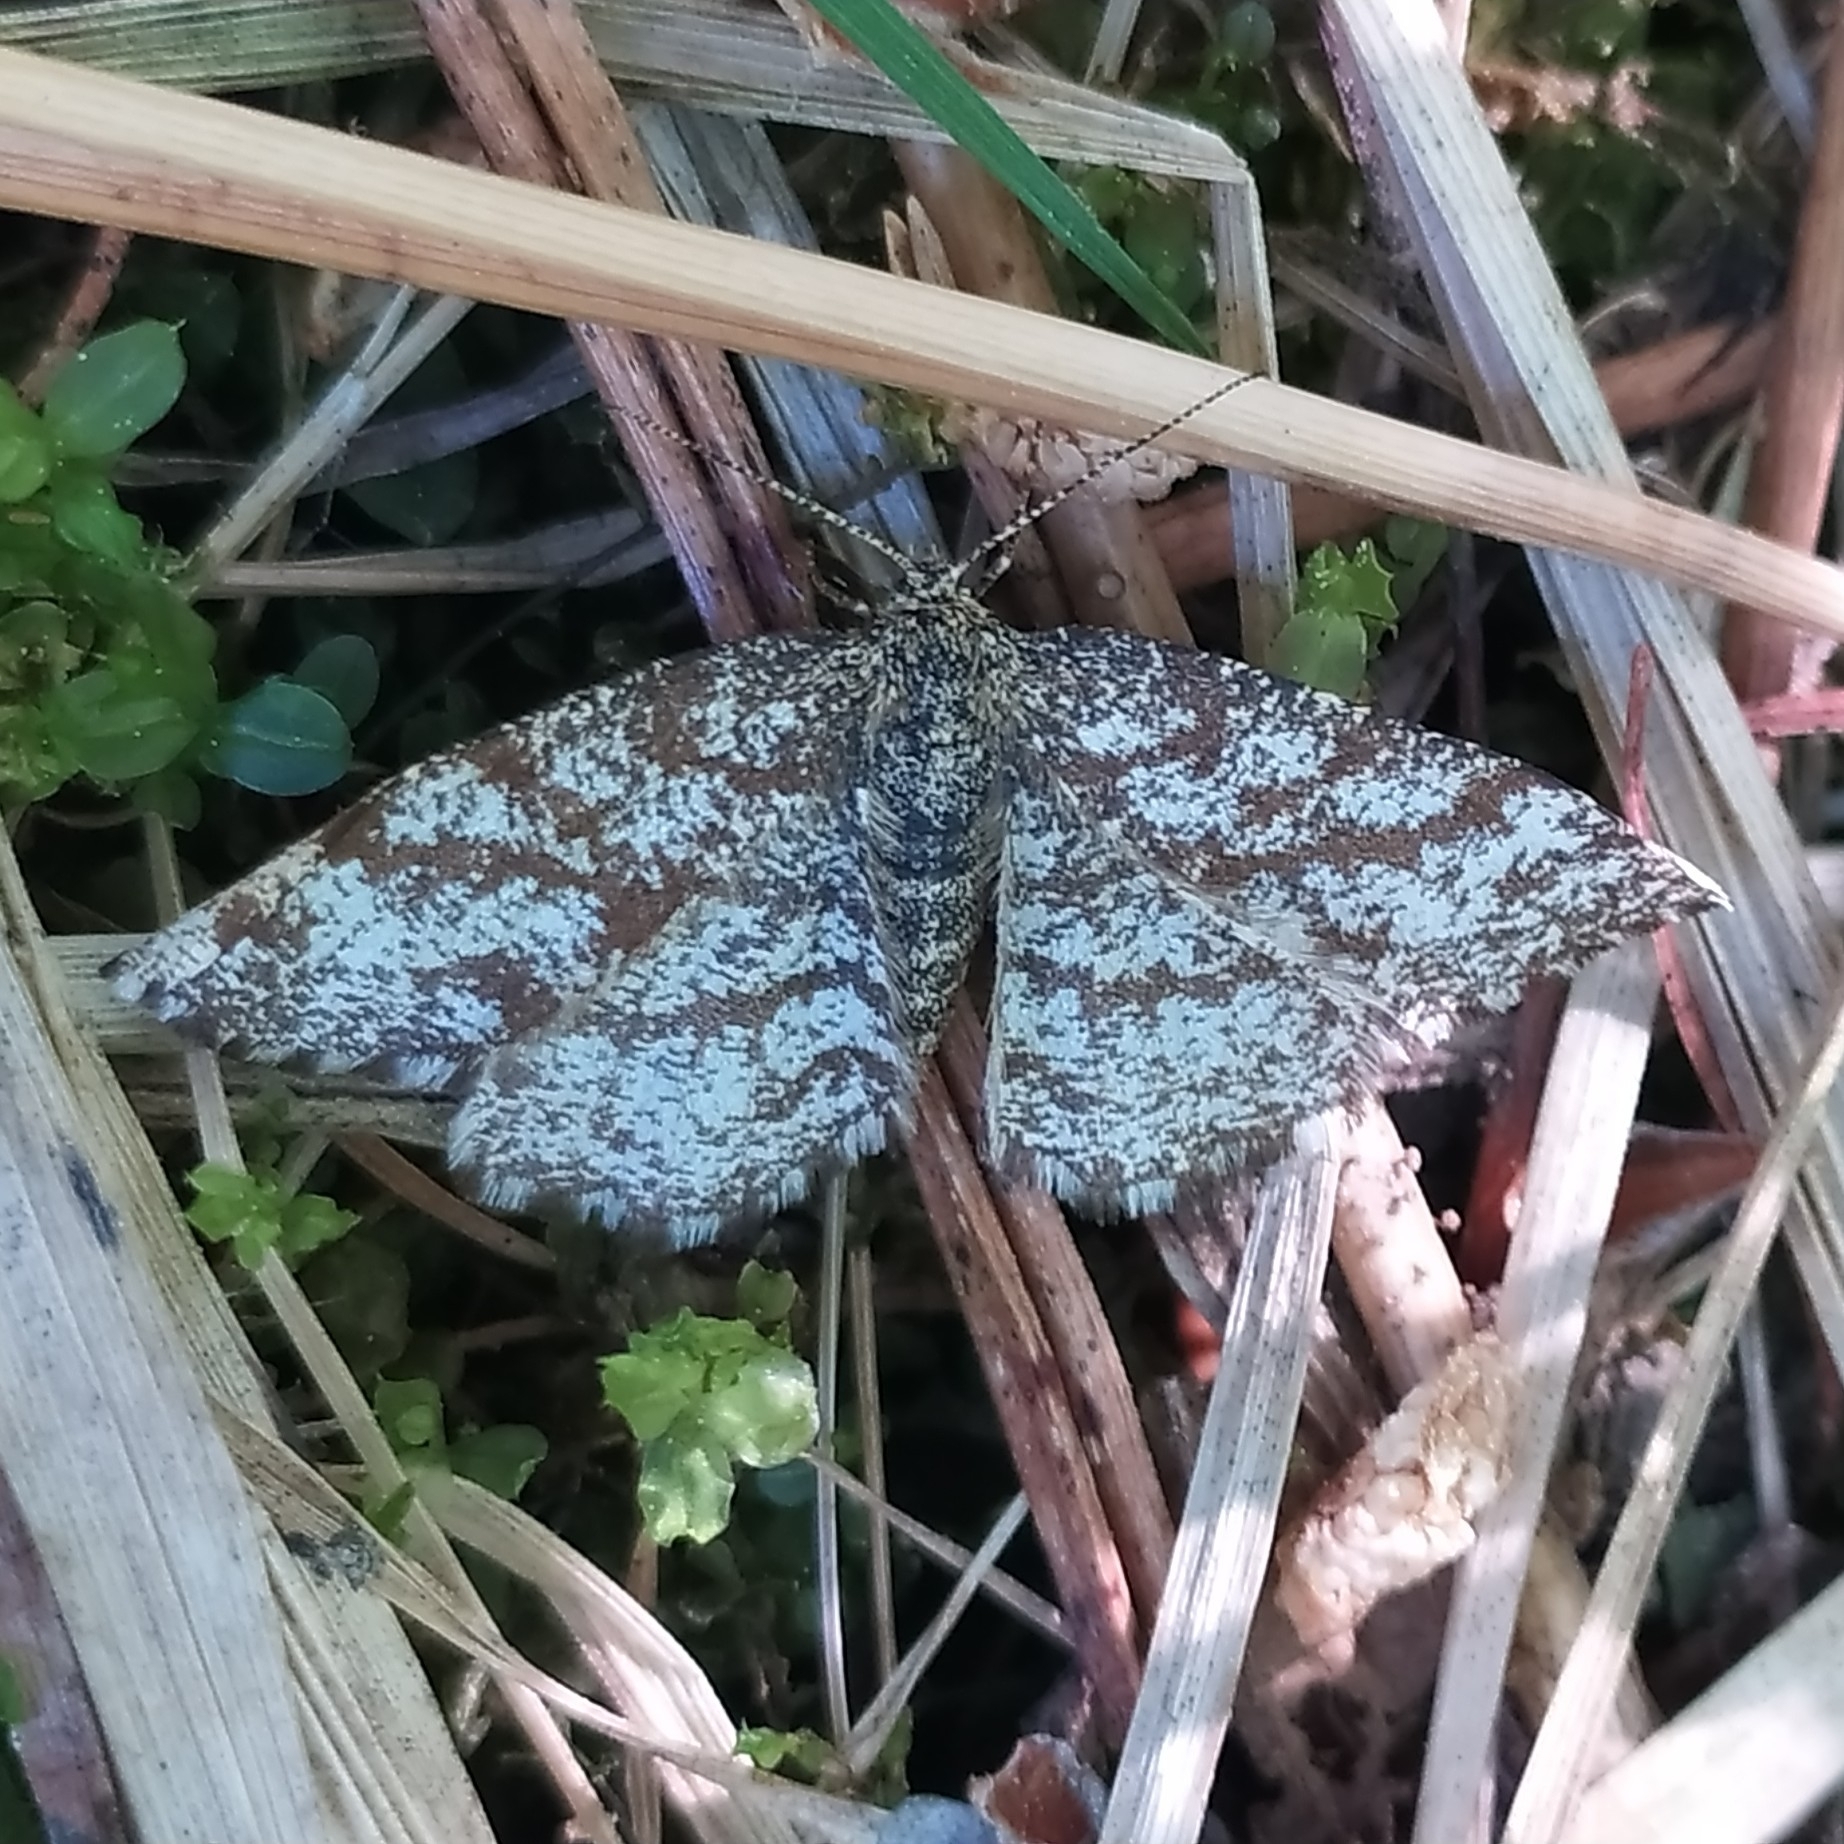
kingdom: Animalia
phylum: Arthropoda
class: Insecta
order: Lepidoptera
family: Geometridae
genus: Ematurga
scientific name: Ematurga atomaria
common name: Common heath
